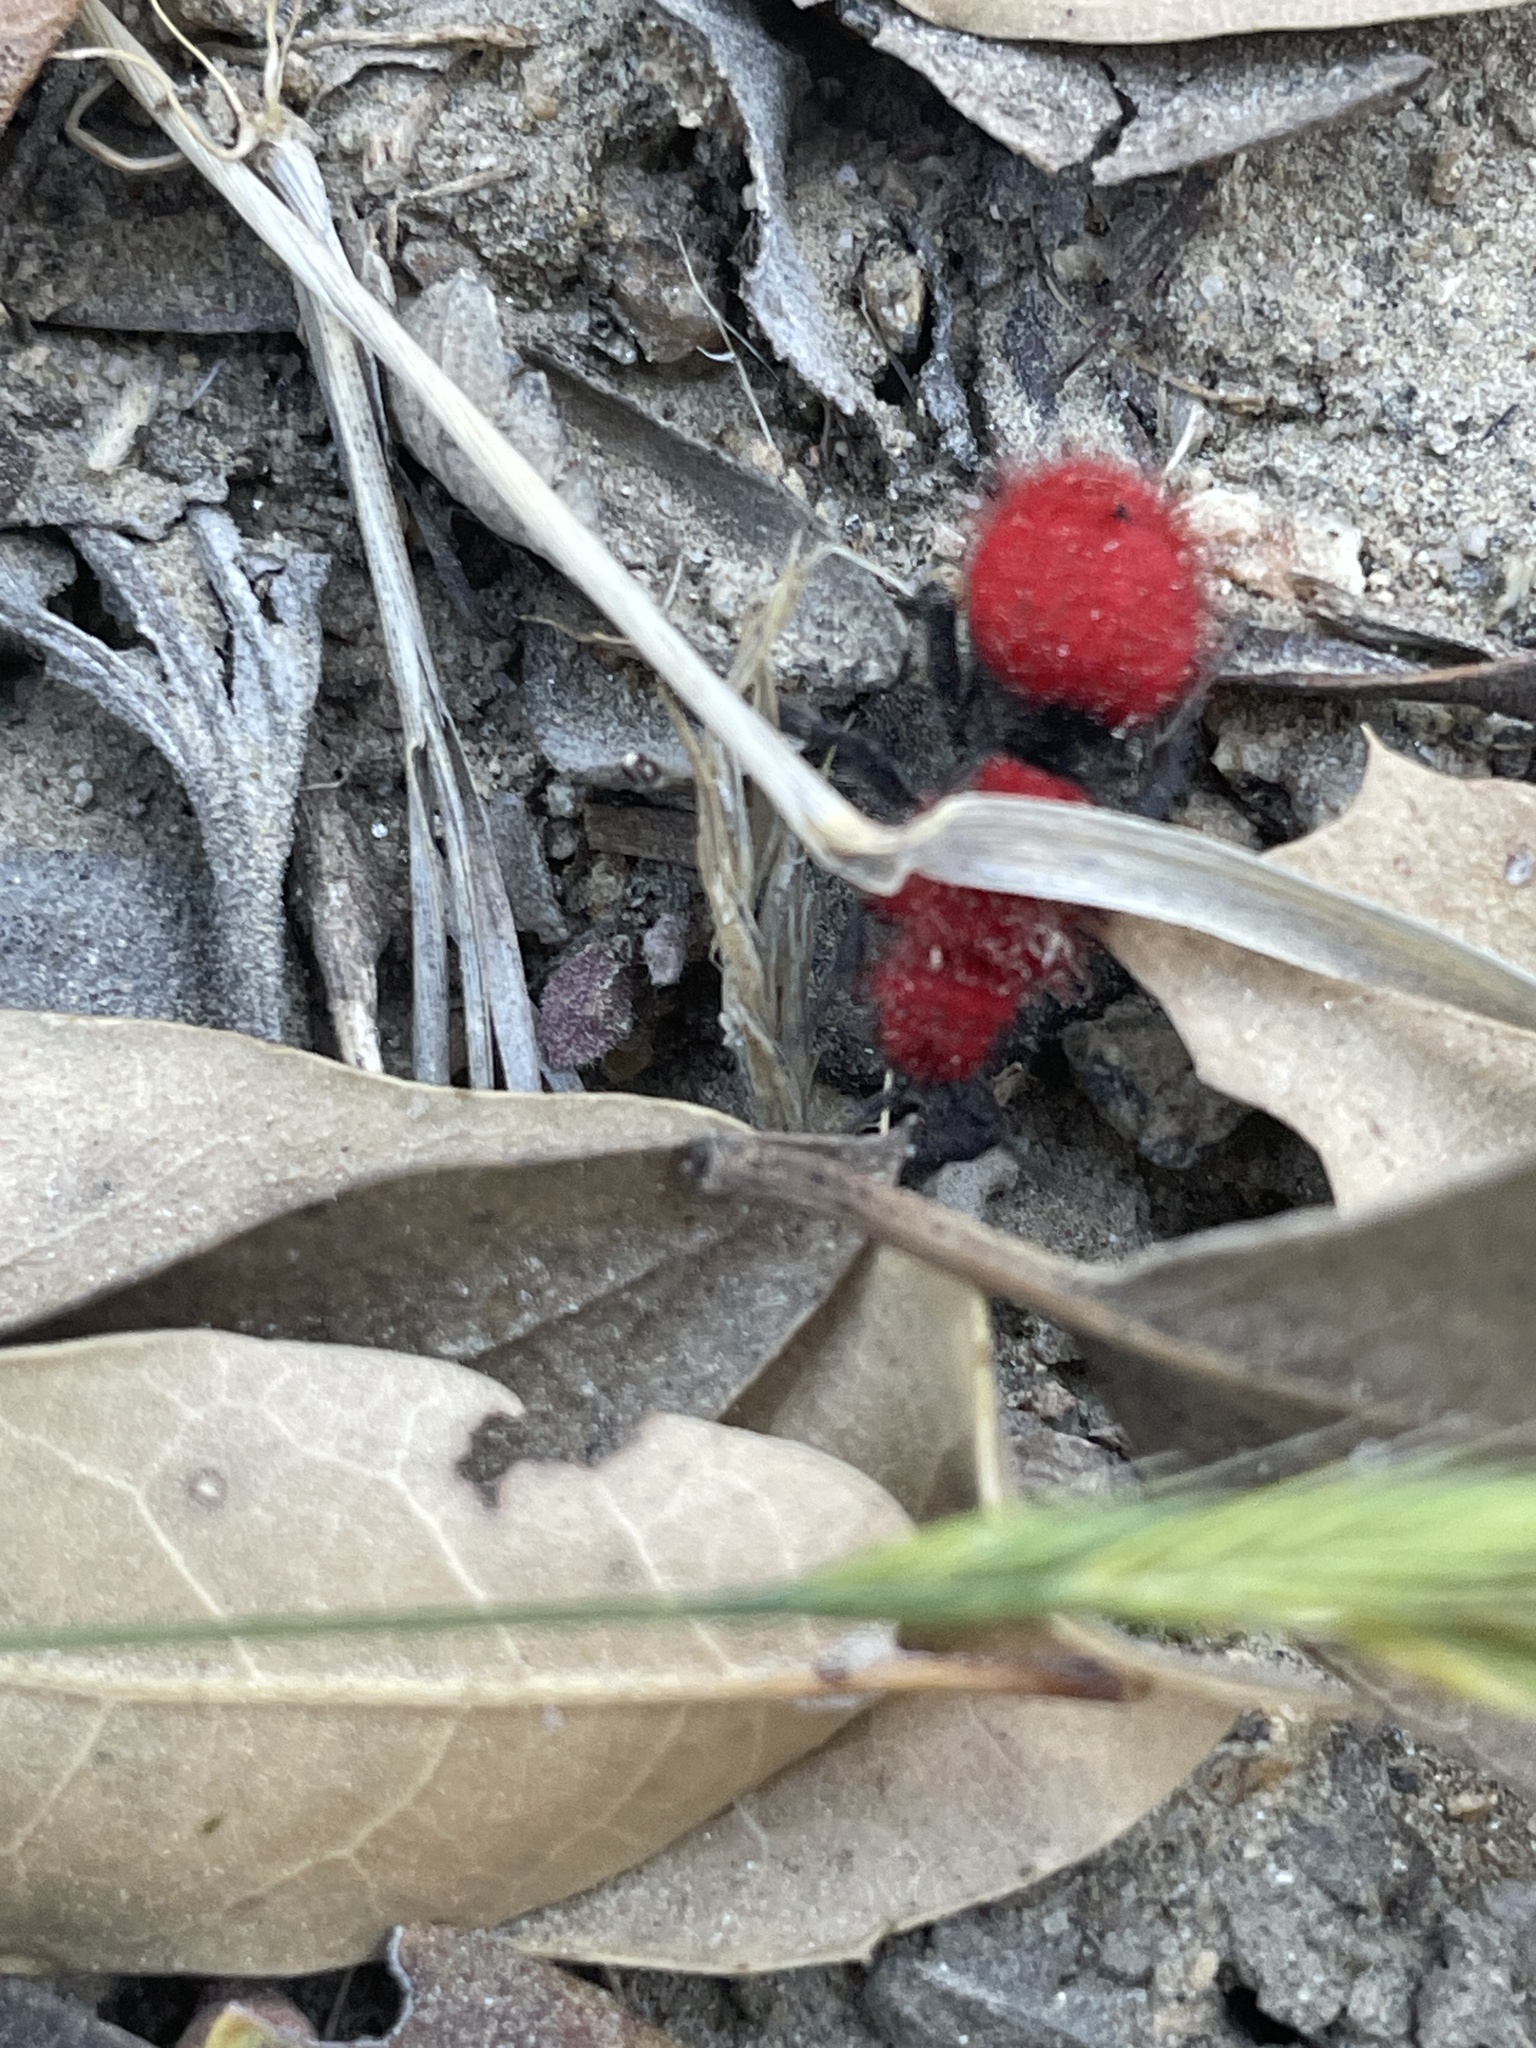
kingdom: Animalia
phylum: Arthropoda
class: Insecta
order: Hymenoptera
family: Mutillidae
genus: Dasymutilla
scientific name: Dasymutilla
